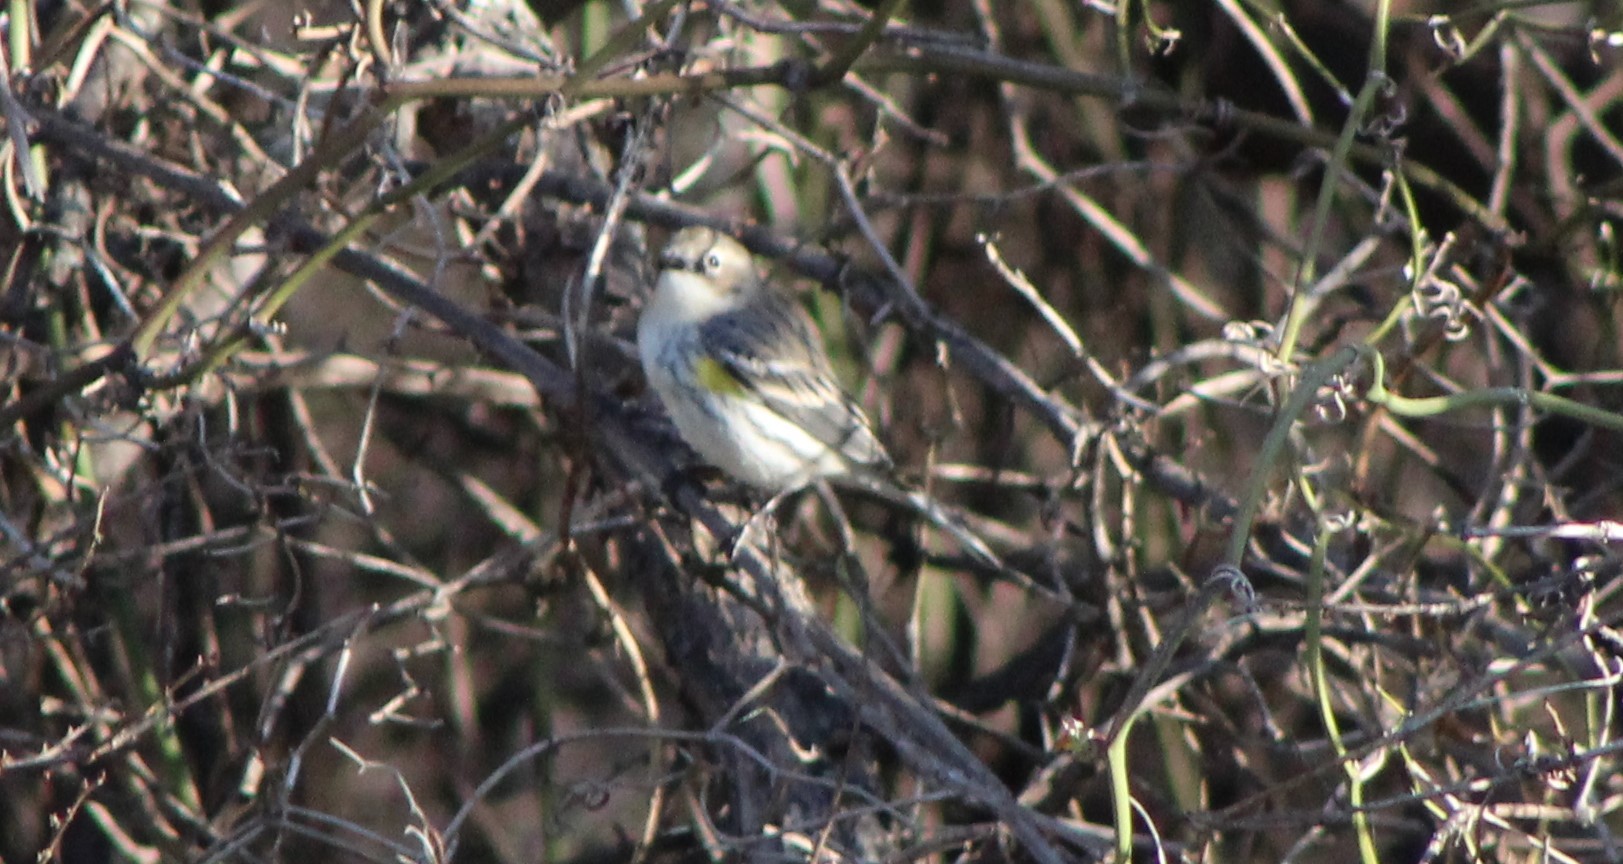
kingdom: Animalia
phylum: Chordata
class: Aves
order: Passeriformes
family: Parulidae
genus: Setophaga
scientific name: Setophaga coronata
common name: Myrtle warbler
